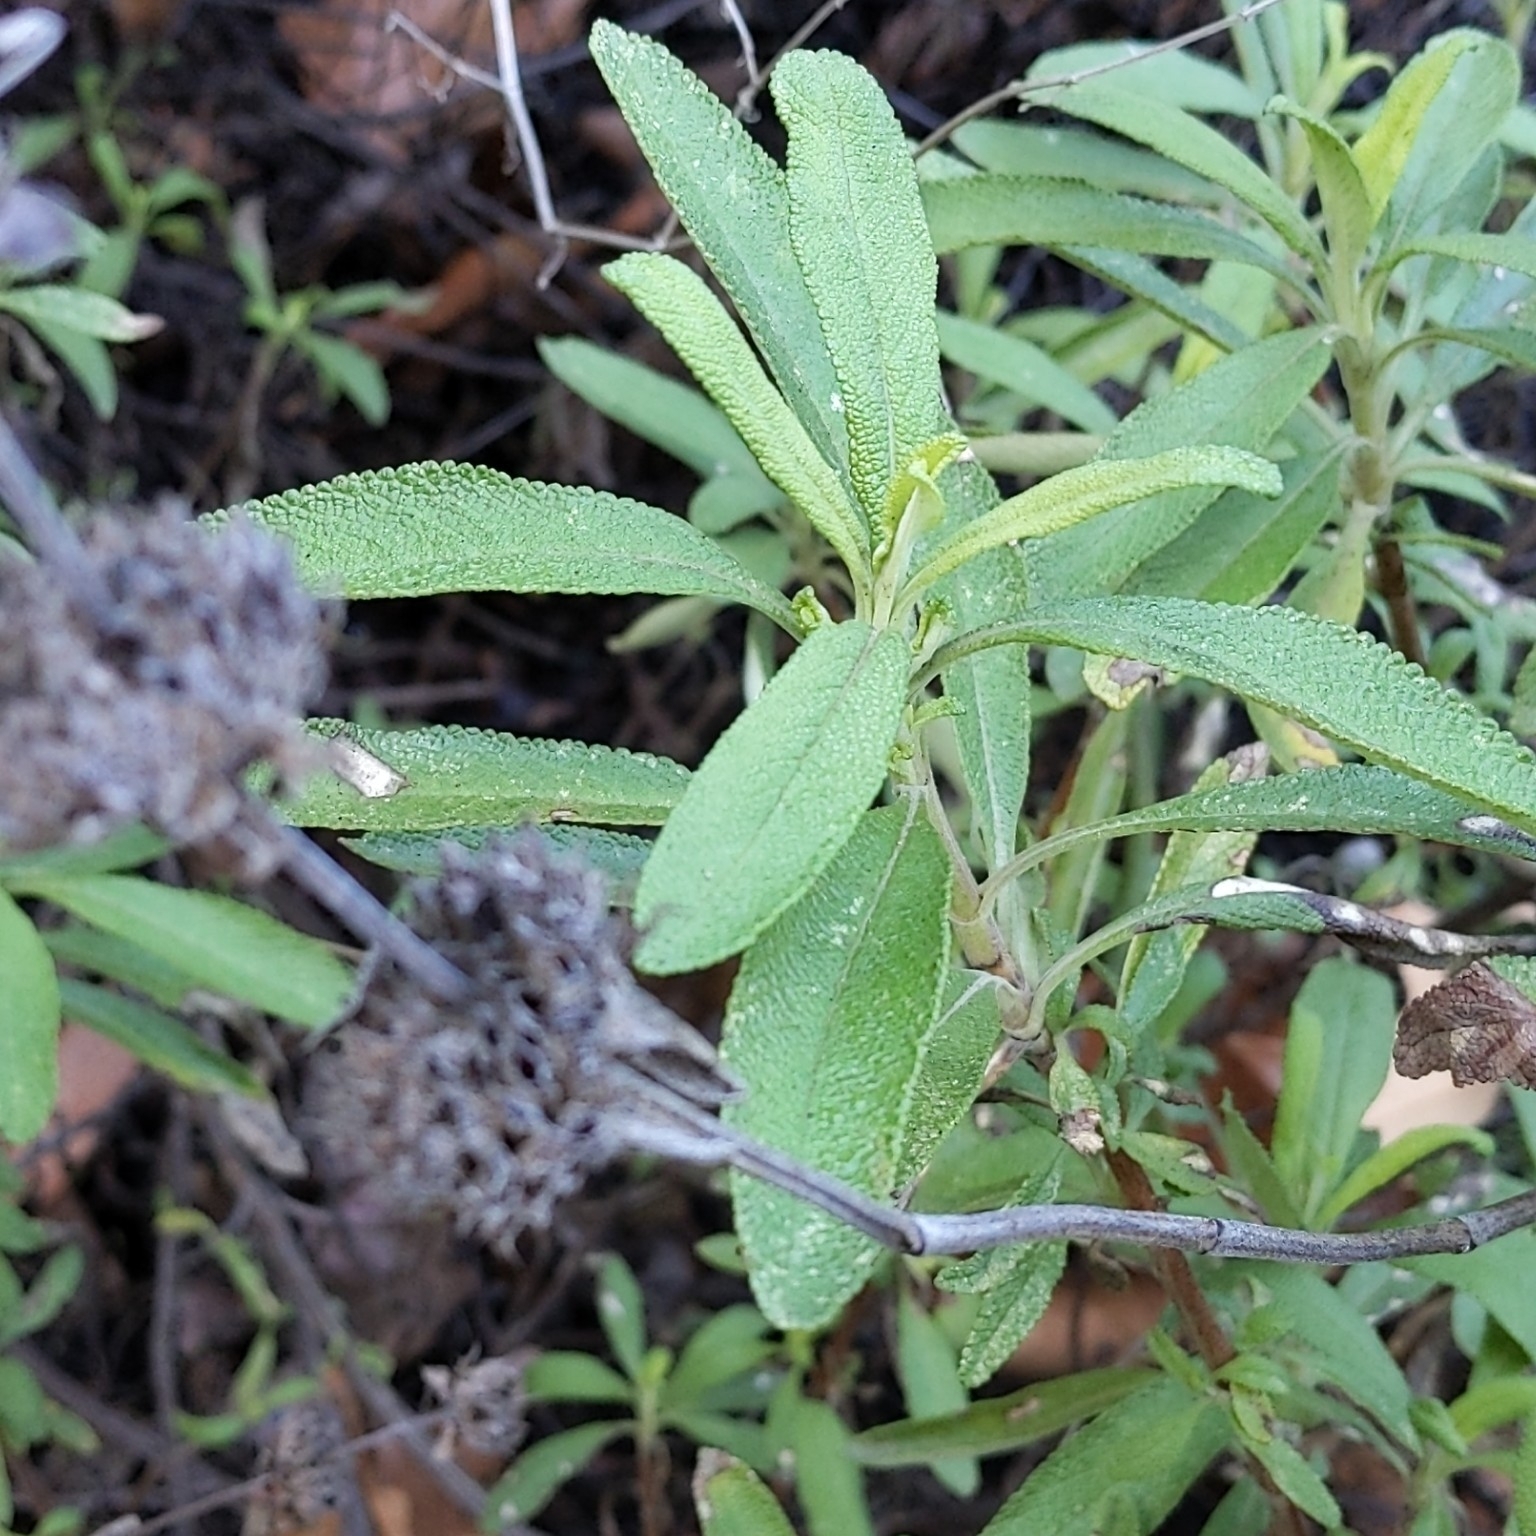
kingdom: Plantae
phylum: Tracheophyta
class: Magnoliopsida
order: Lamiales
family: Lamiaceae
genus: Salvia
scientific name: Salvia mellifera
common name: Black sage
